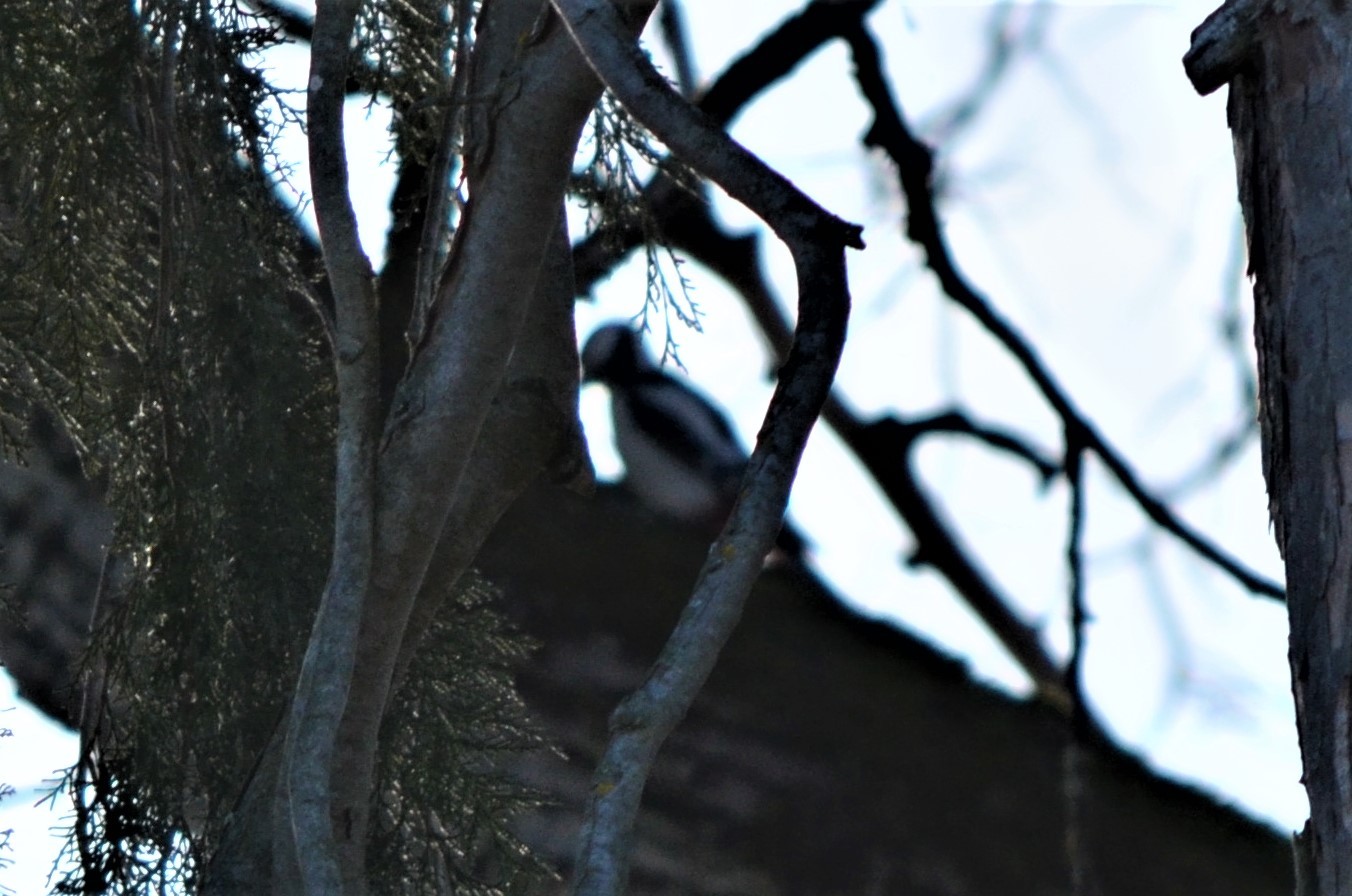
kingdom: Animalia
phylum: Chordata
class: Aves
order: Piciformes
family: Picidae
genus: Dendrocopos
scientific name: Dendrocopos major
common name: Great spotted woodpecker
